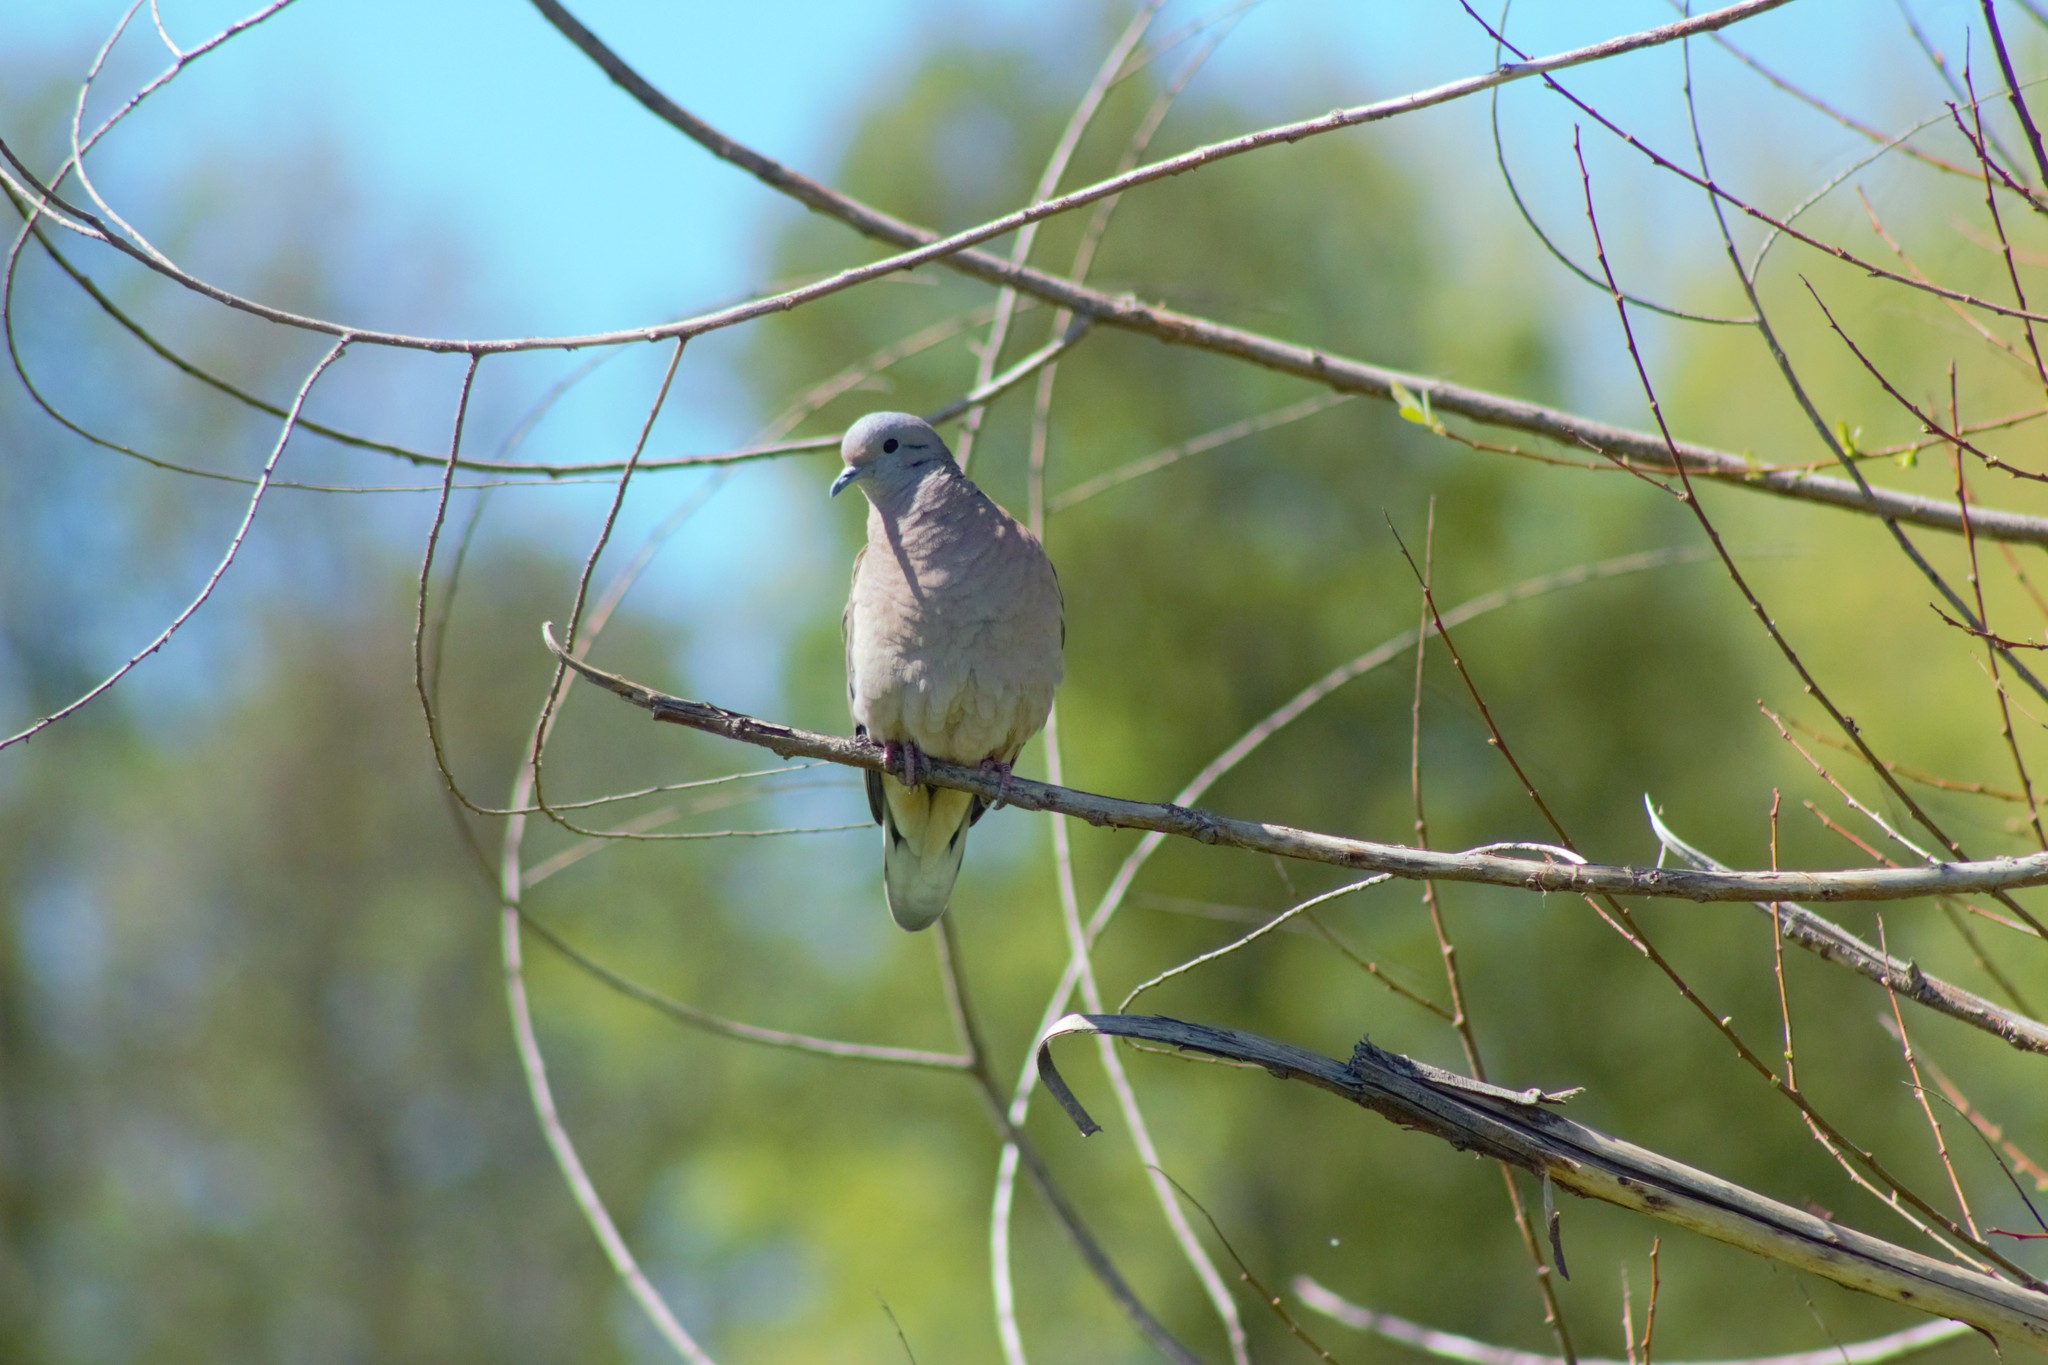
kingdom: Animalia
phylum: Chordata
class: Aves
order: Columbiformes
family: Columbidae
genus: Zenaida
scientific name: Zenaida auriculata
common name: Eared dove
